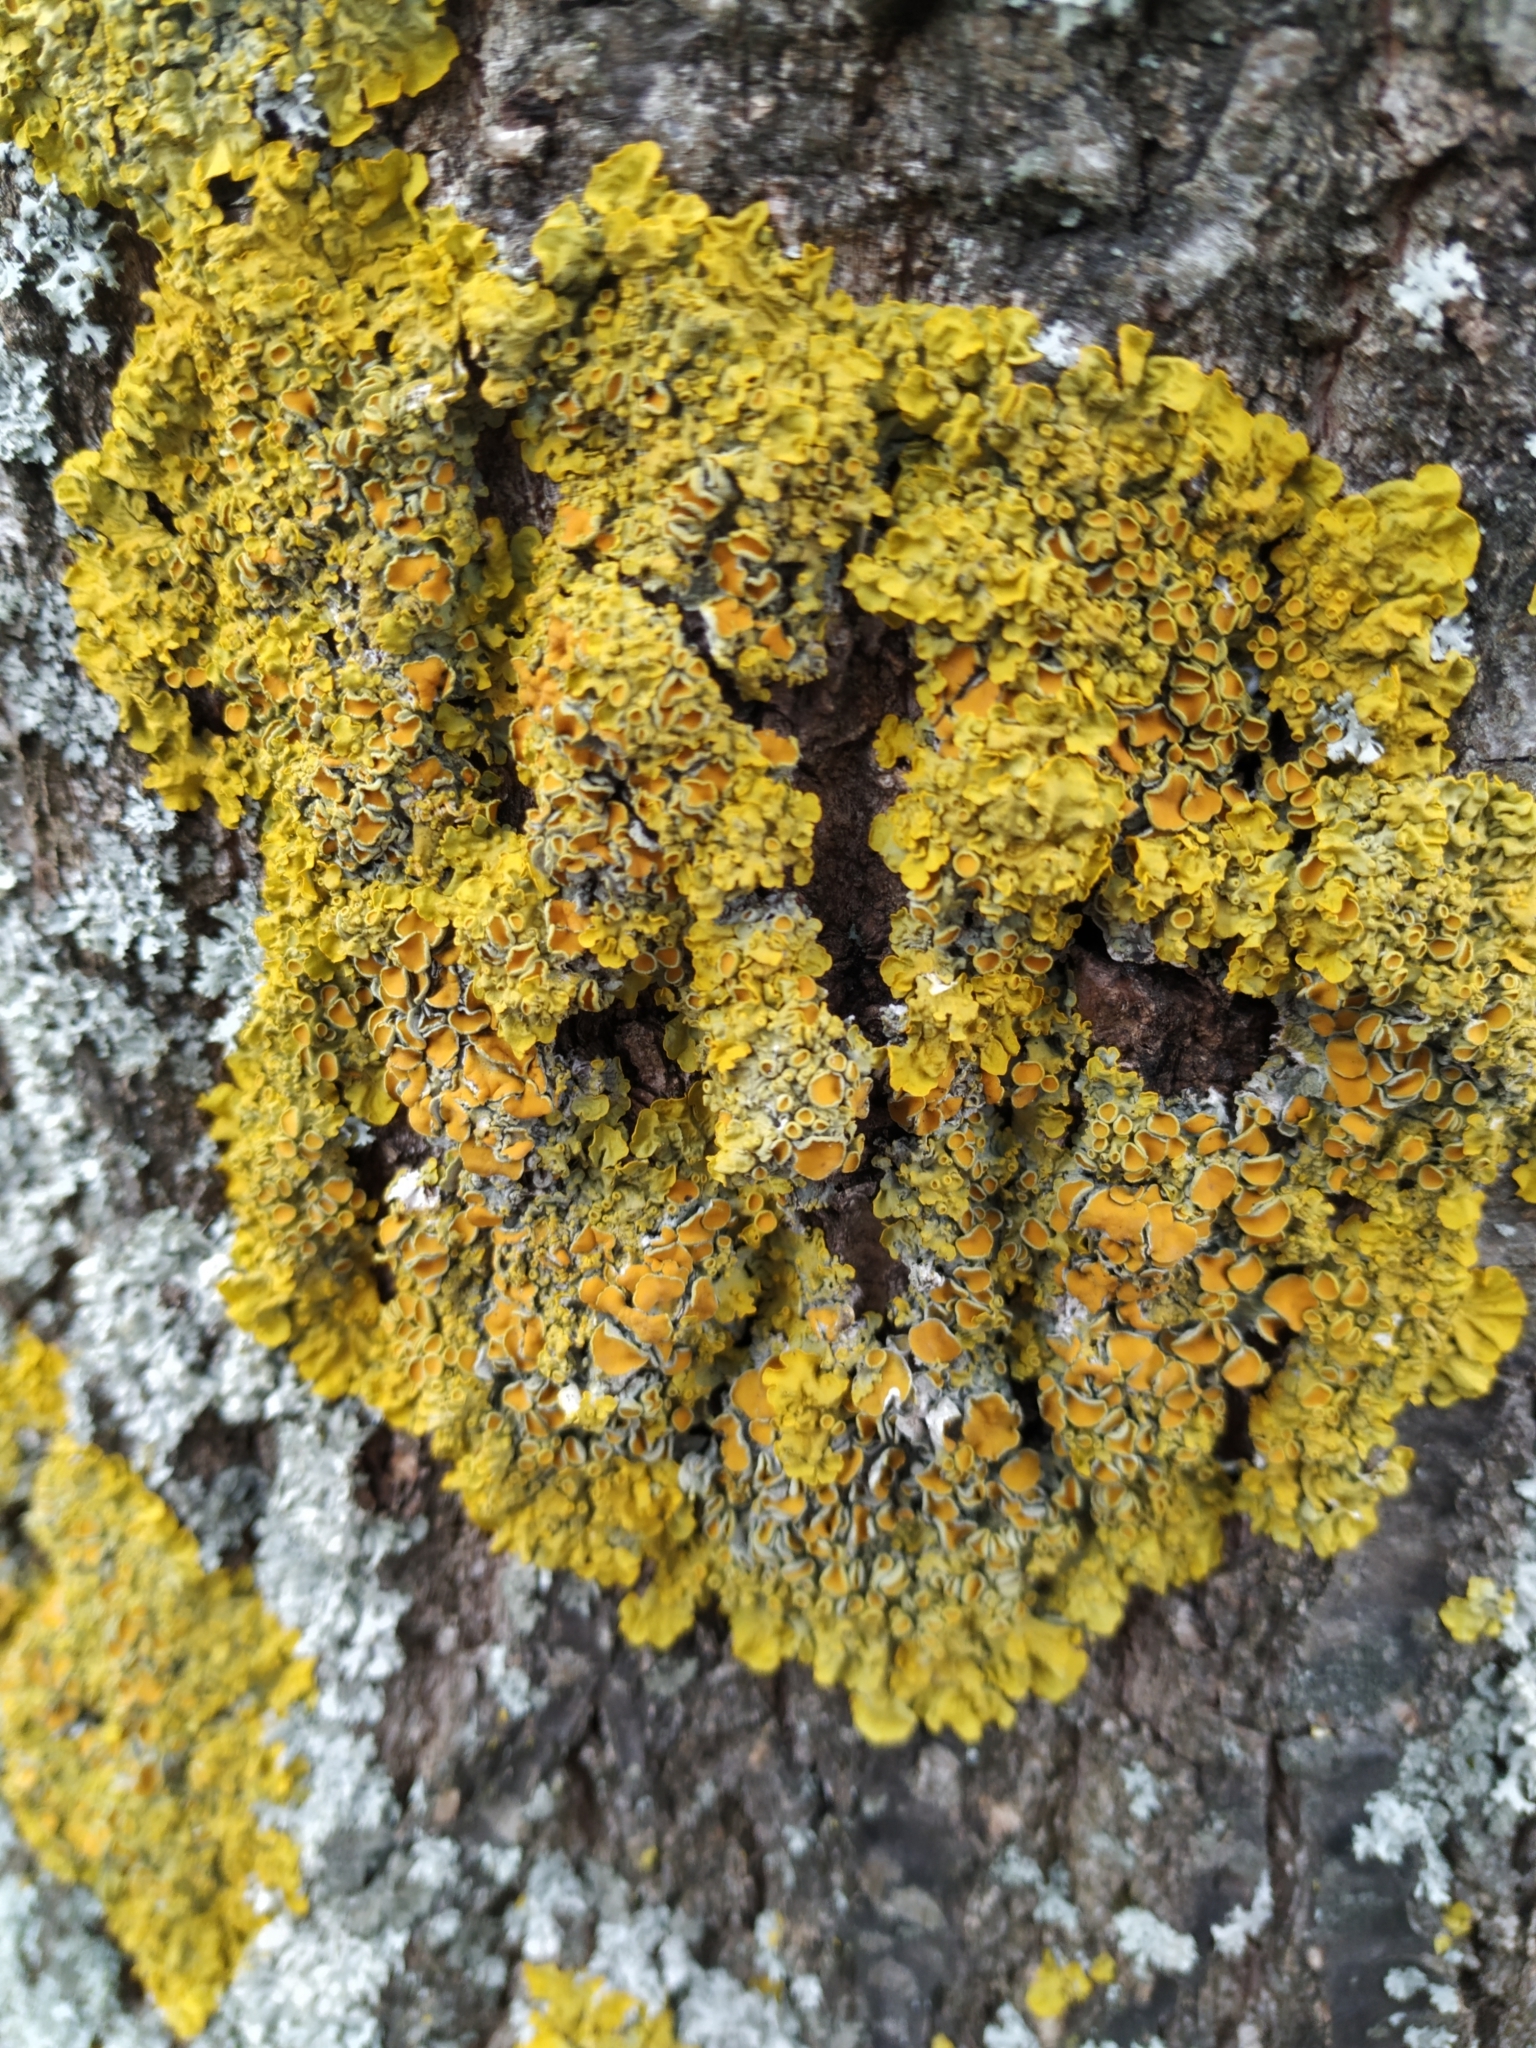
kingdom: Fungi
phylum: Ascomycota
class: Lecanoromycetes
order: Teloschistales
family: Teloschistaceae
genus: Xanthoria
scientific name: Xanthoria parietina
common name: Common orange lichen
